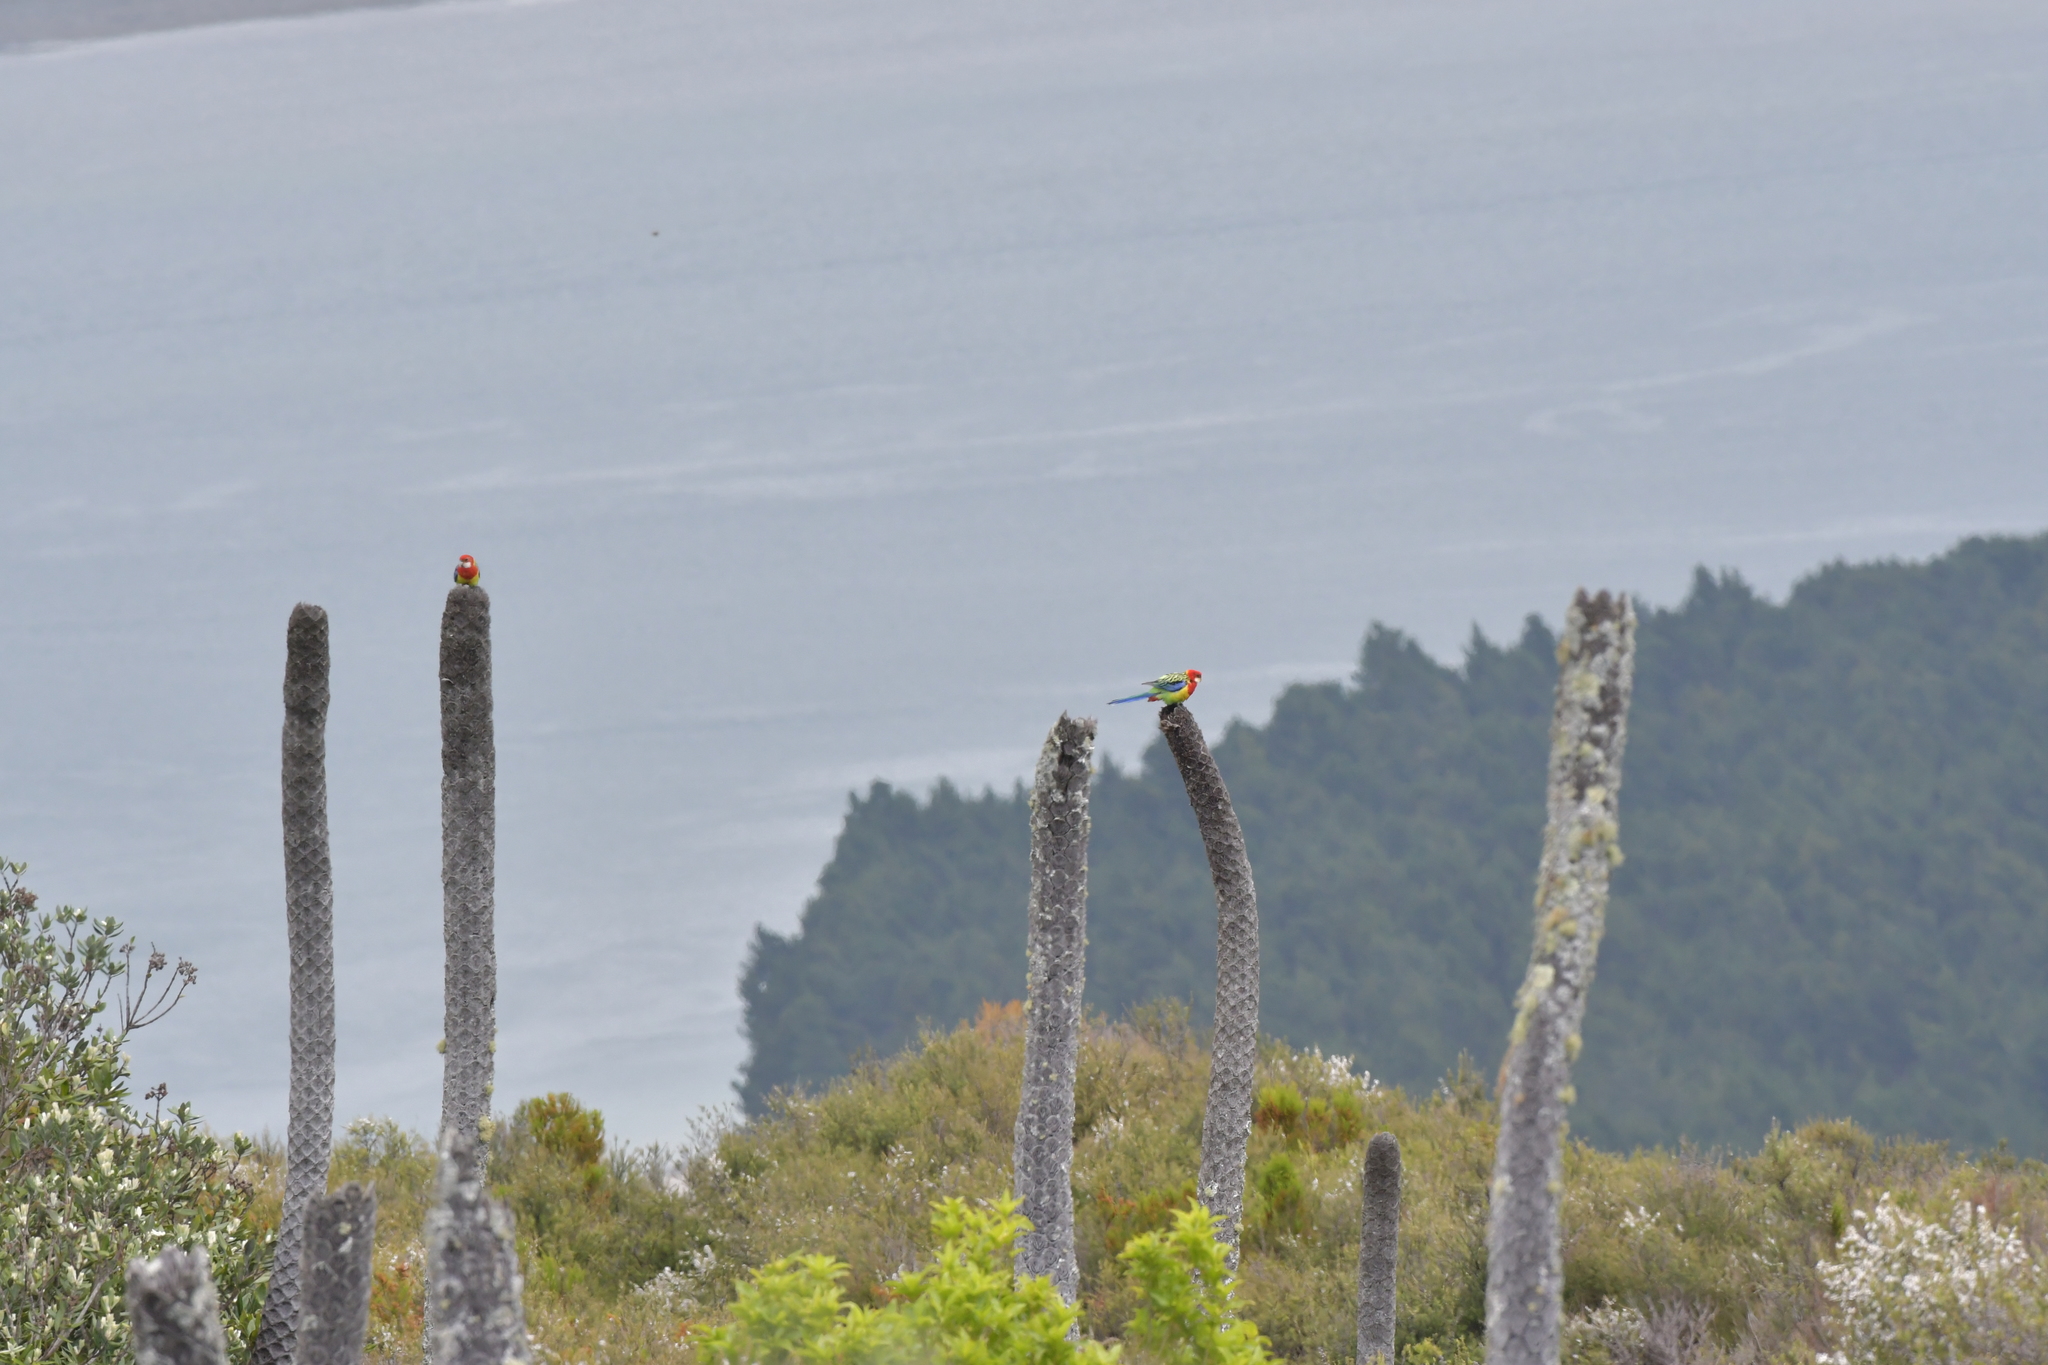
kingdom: Animalia
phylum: Chordata
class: Aves
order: Psittaciformes
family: Psittacidae
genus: Platycercus
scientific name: Platycercus eximius
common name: Eastern rosella
